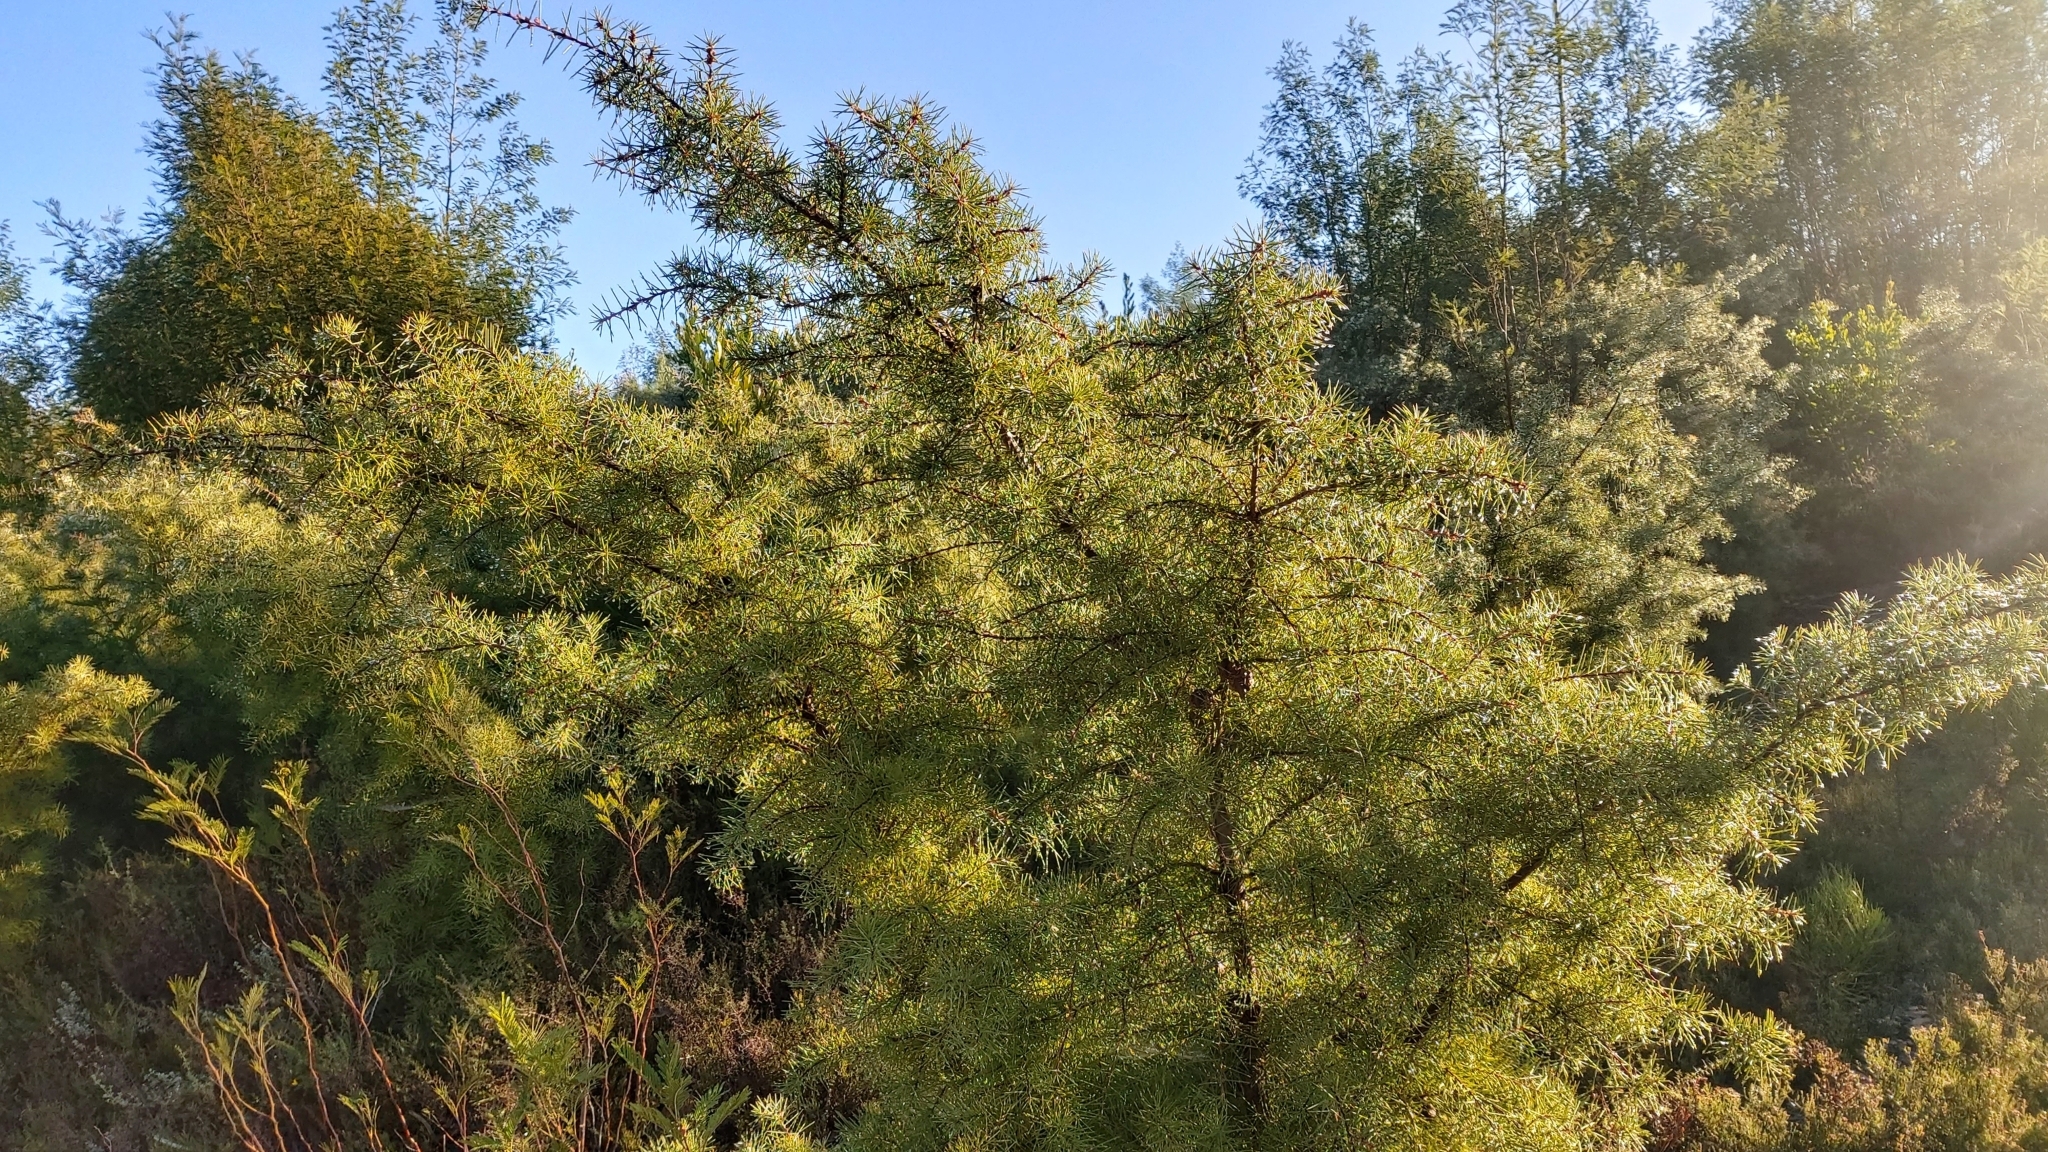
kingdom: Plantae
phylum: Tracheophyta
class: Magnoliopsida
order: Proteales
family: Proteaceae
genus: Hakea
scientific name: Hakea decurrens
